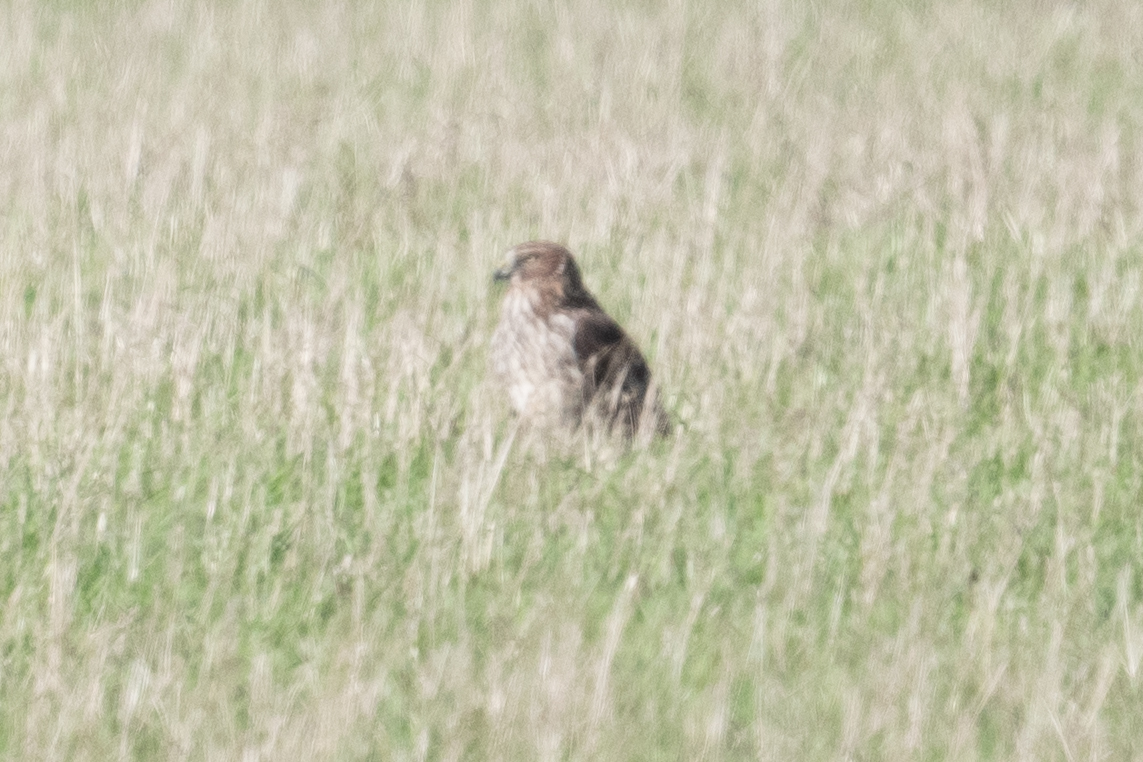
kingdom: Animalia
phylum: Chordata
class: Aves
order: Accipitriformes
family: Accipitridae
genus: Circus
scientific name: Circus cyaneus
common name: Hen harrier
